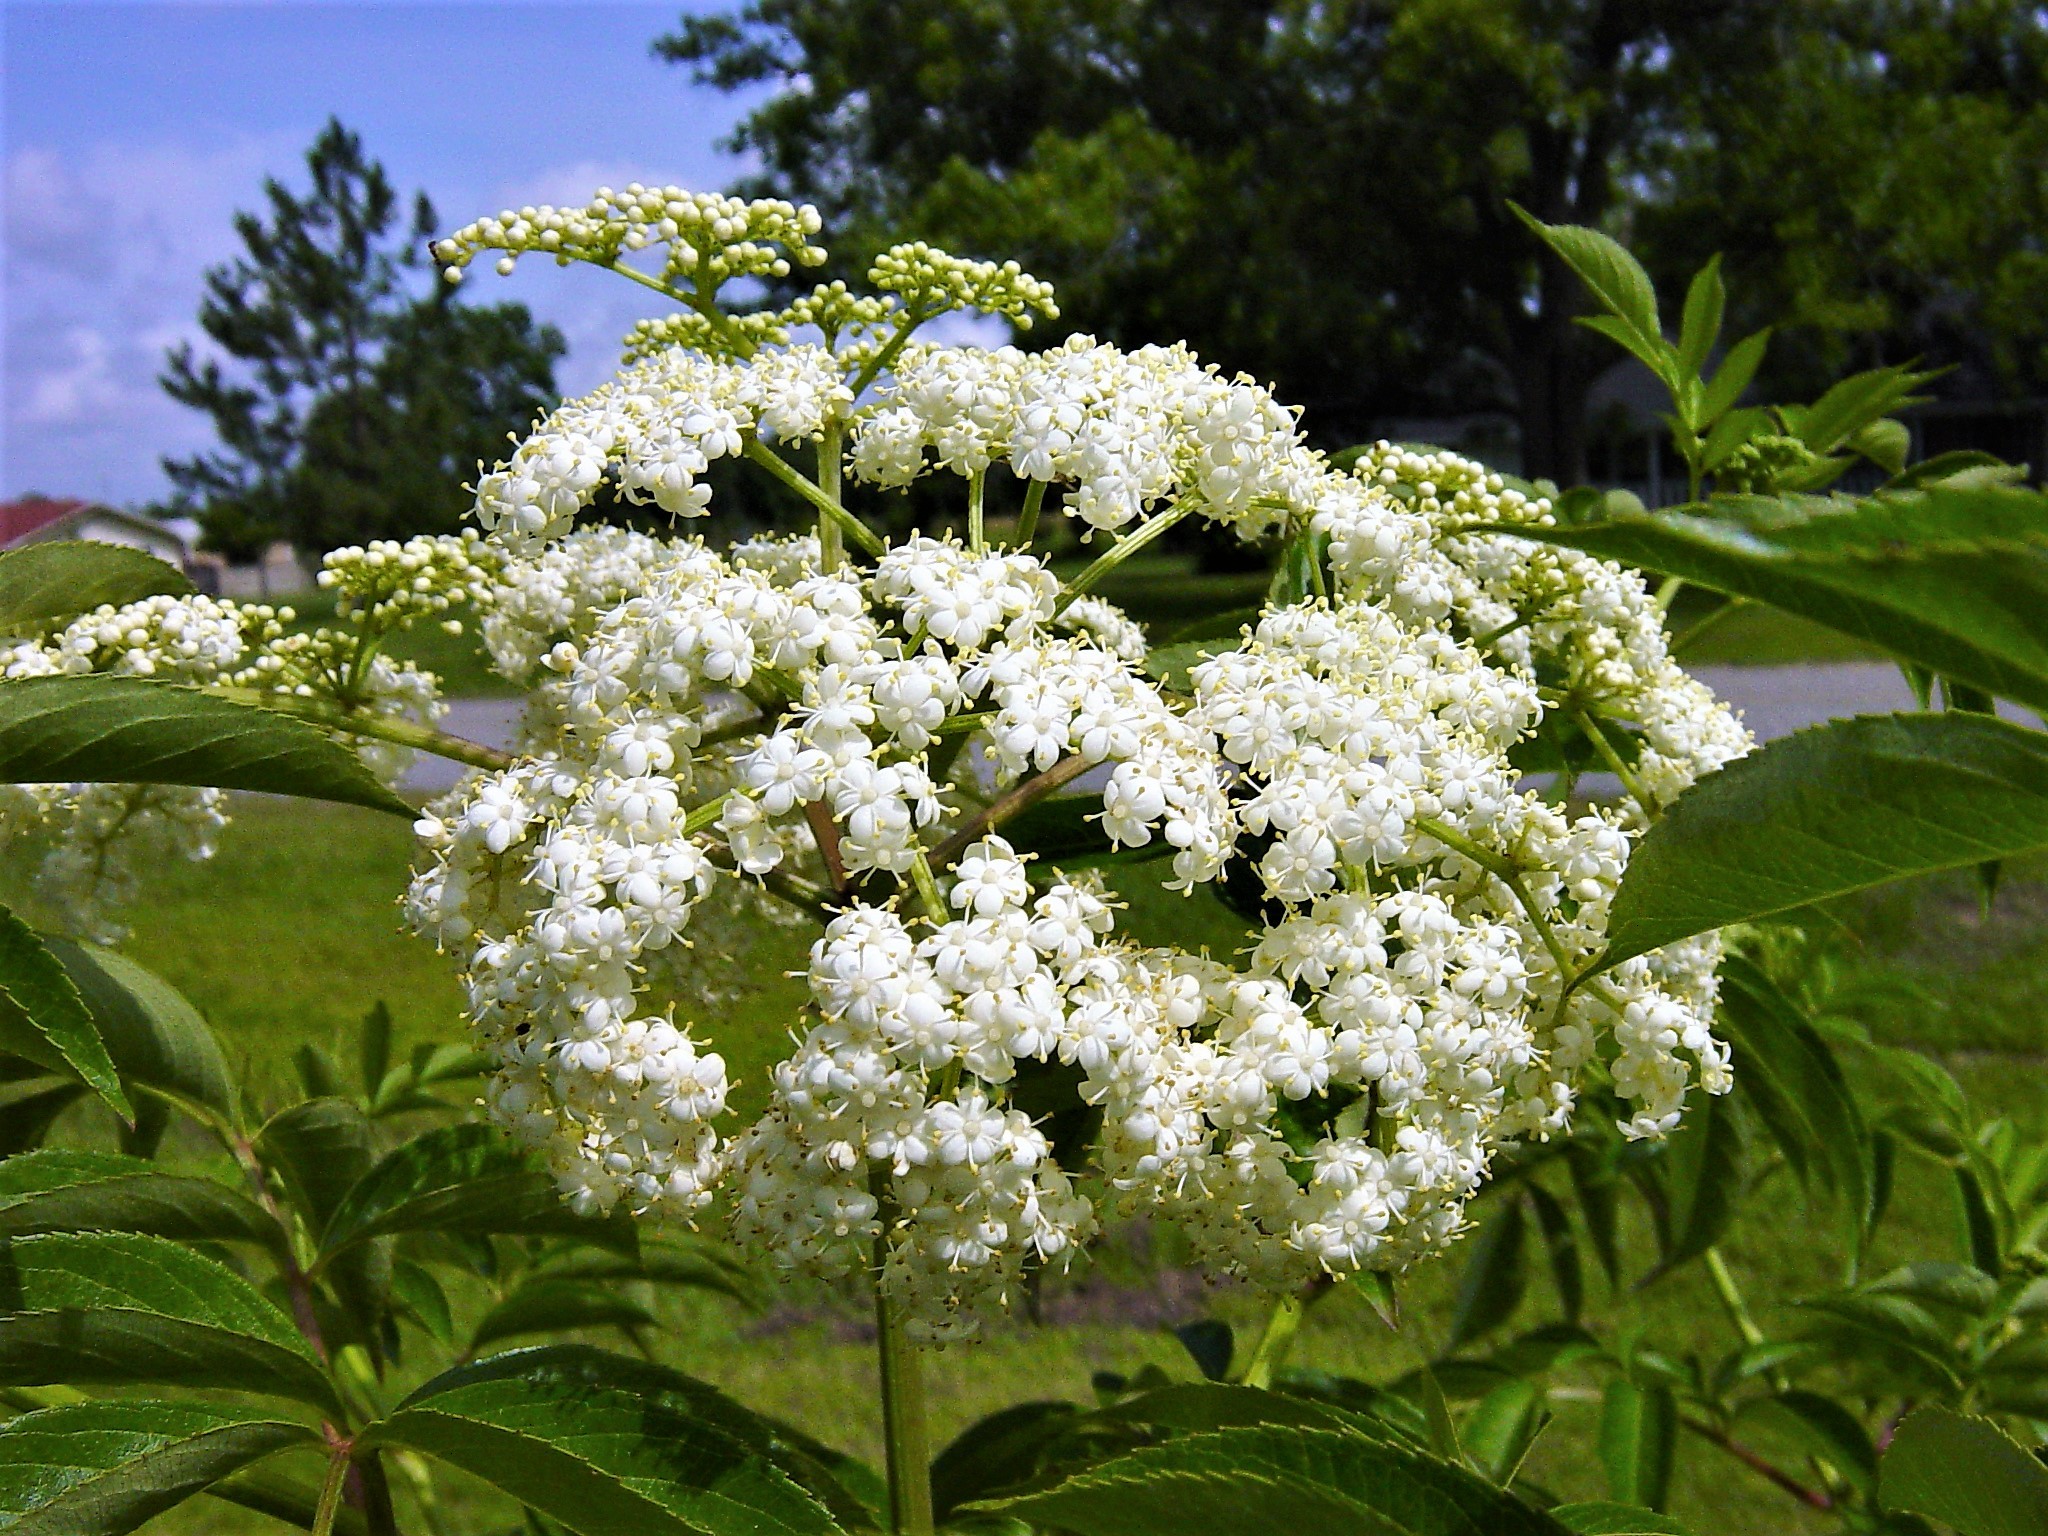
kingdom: Plantae
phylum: Tracheophyta
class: Magnoliopsida
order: Dipsacales
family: Viburnaceae
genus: Sambucus
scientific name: Sambucus canadensis
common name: American elder
